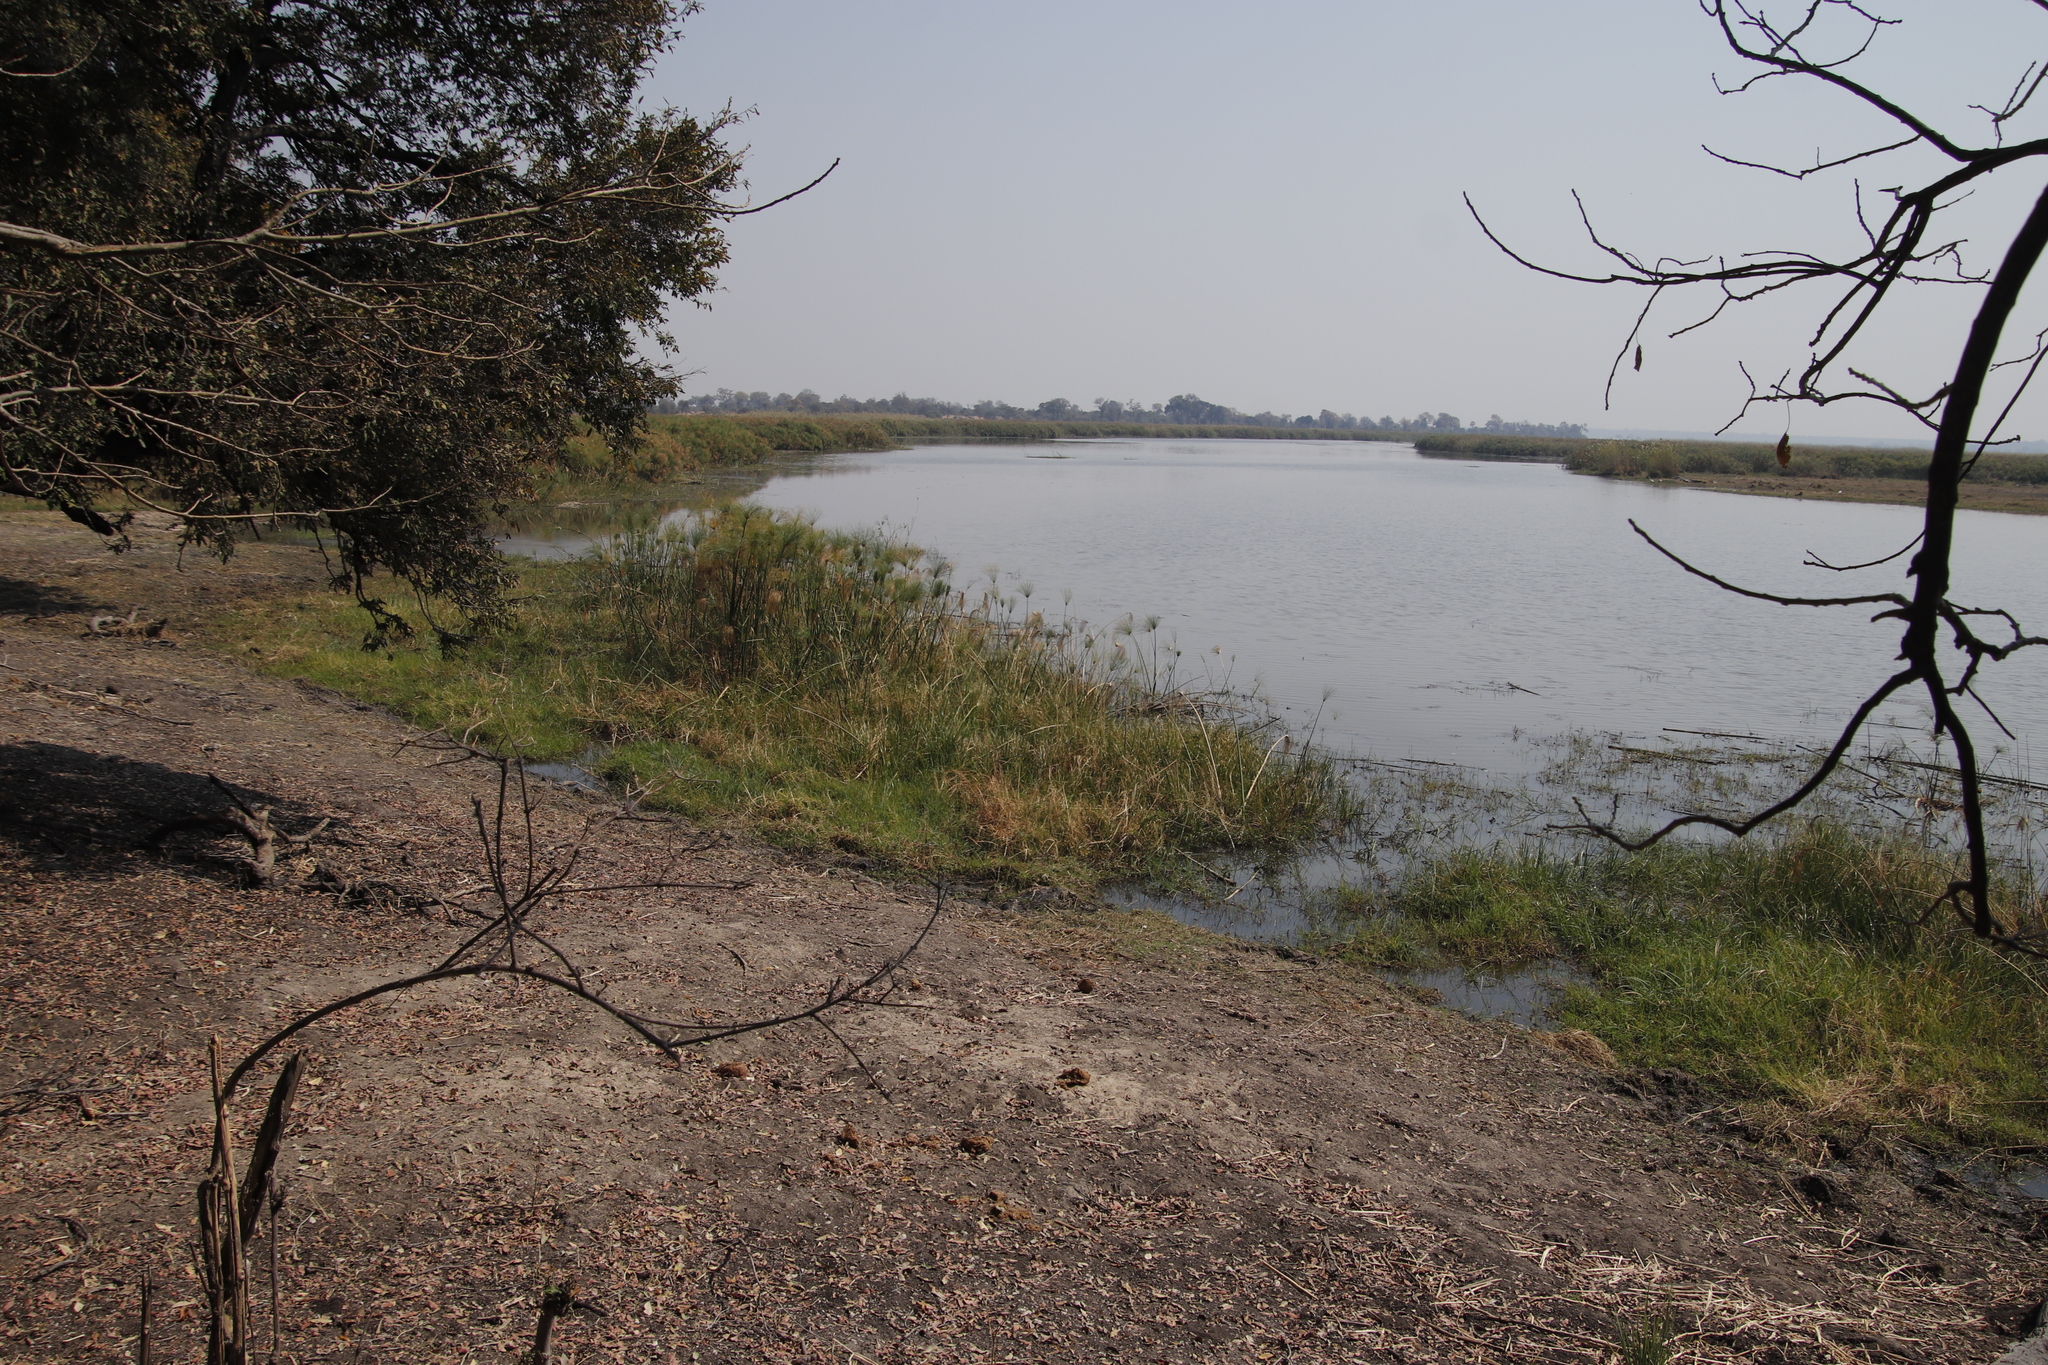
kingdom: Plantae
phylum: Tracheophyta
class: Liliopsida
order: Poales
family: Cyperaceae
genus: Cyperus
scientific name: Cyperus papyrus
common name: Papyrus
